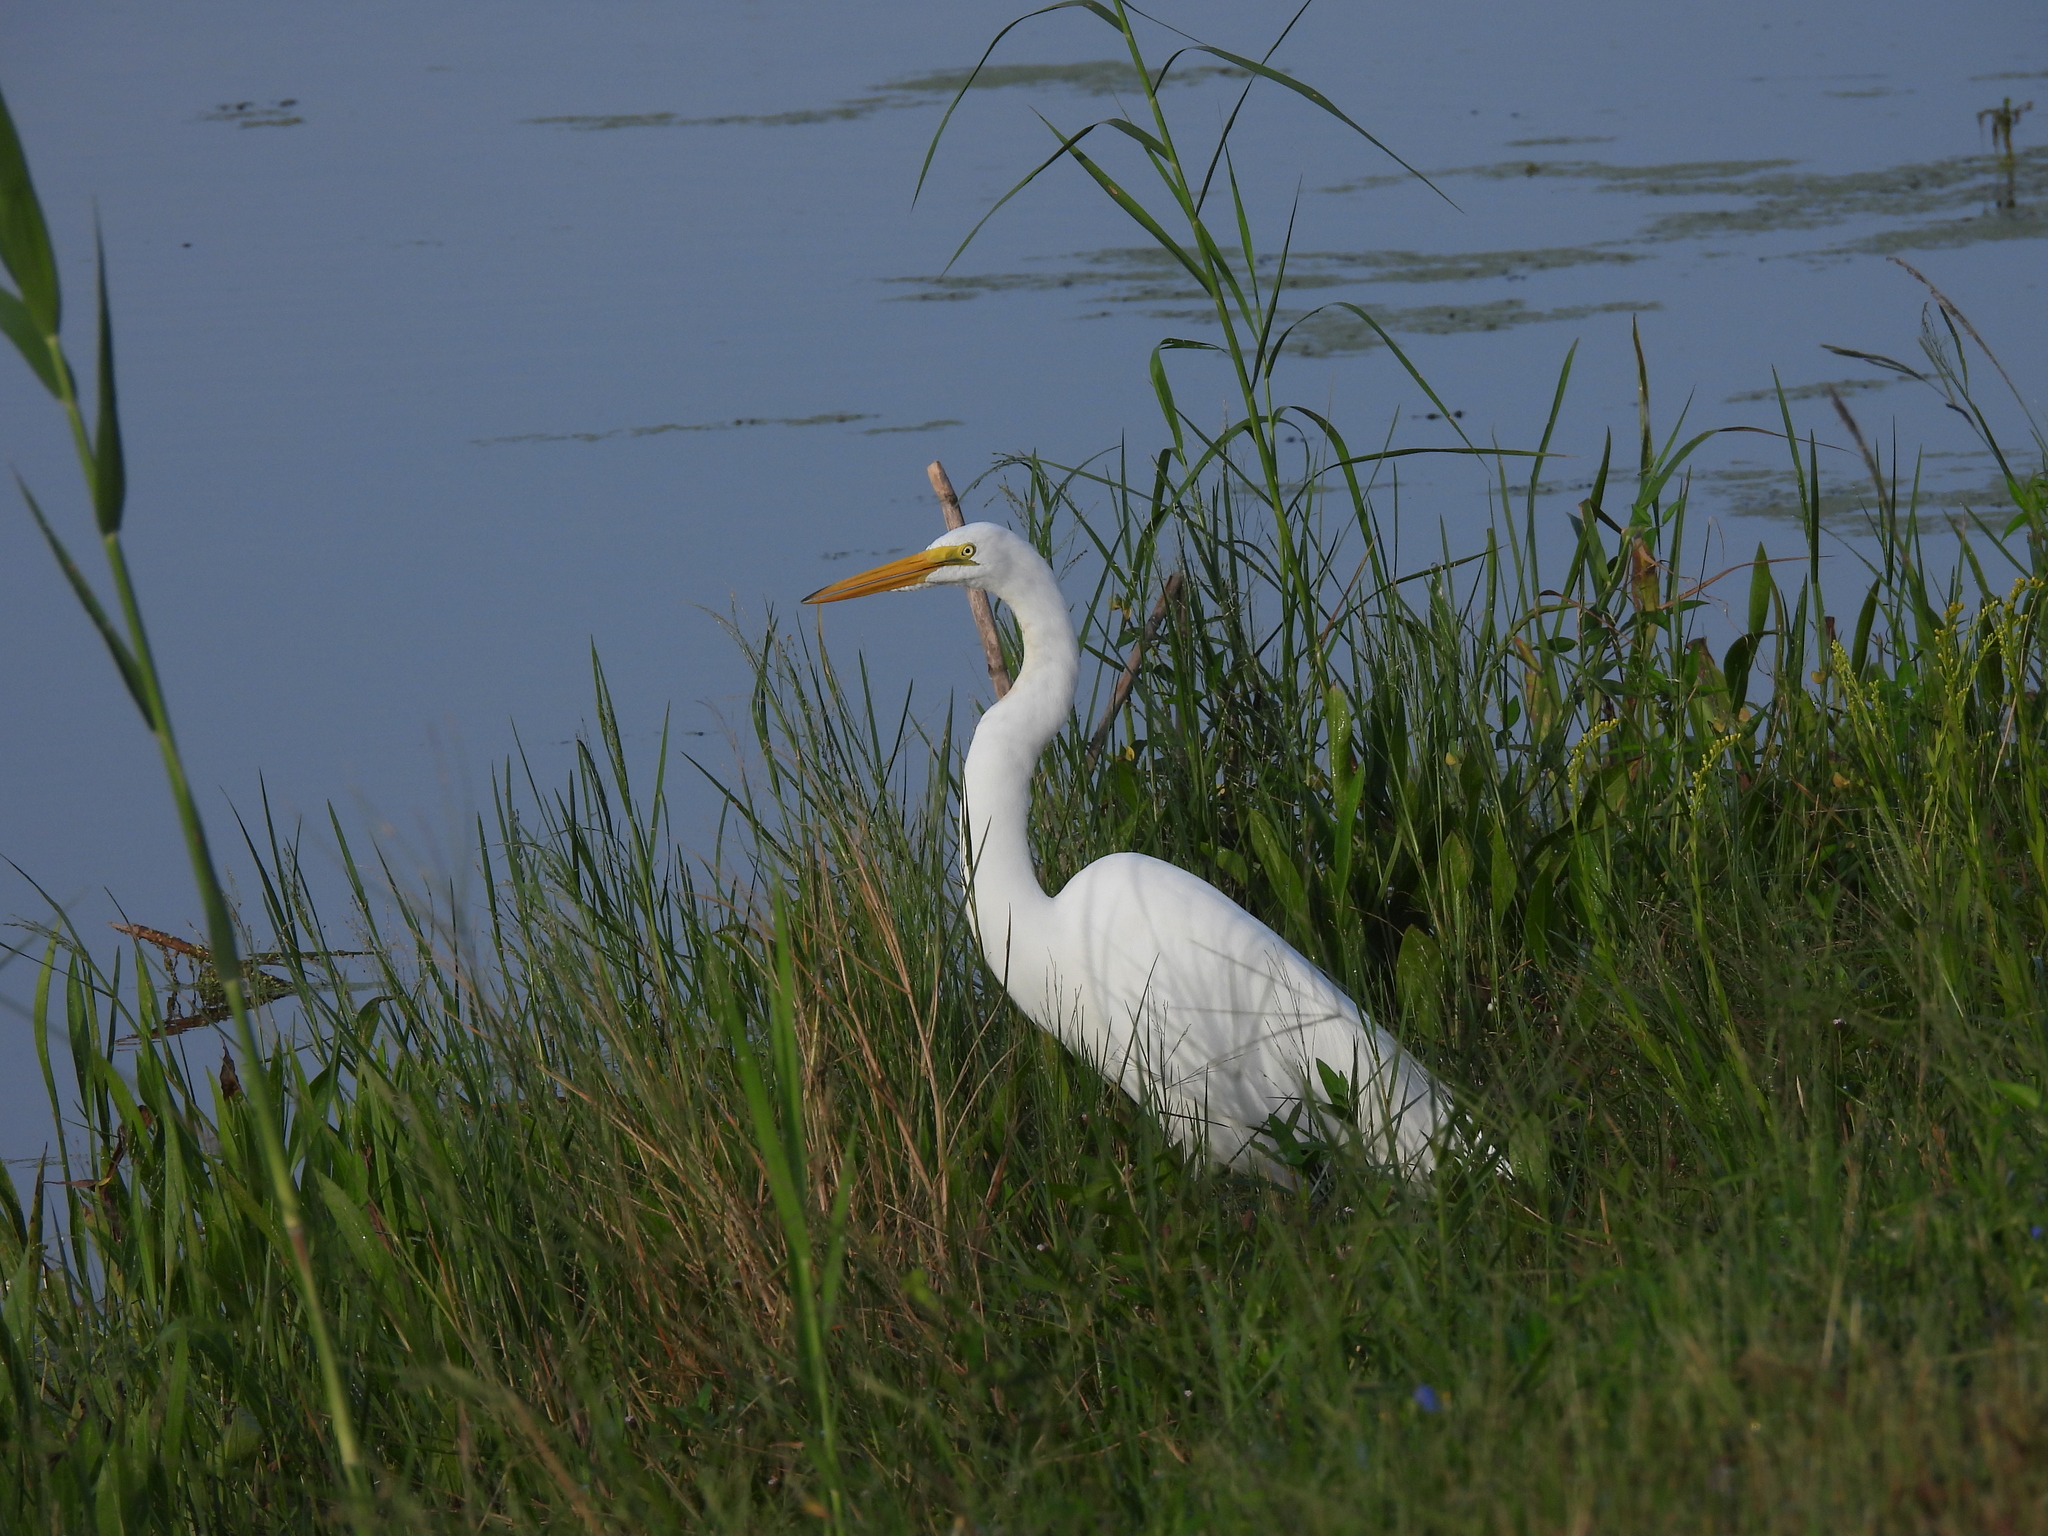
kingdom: Animalia
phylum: Chordata
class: Aves
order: Pelecaniformes
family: Ardeidae
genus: Ardea
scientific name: Ardea alba
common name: Great egret
